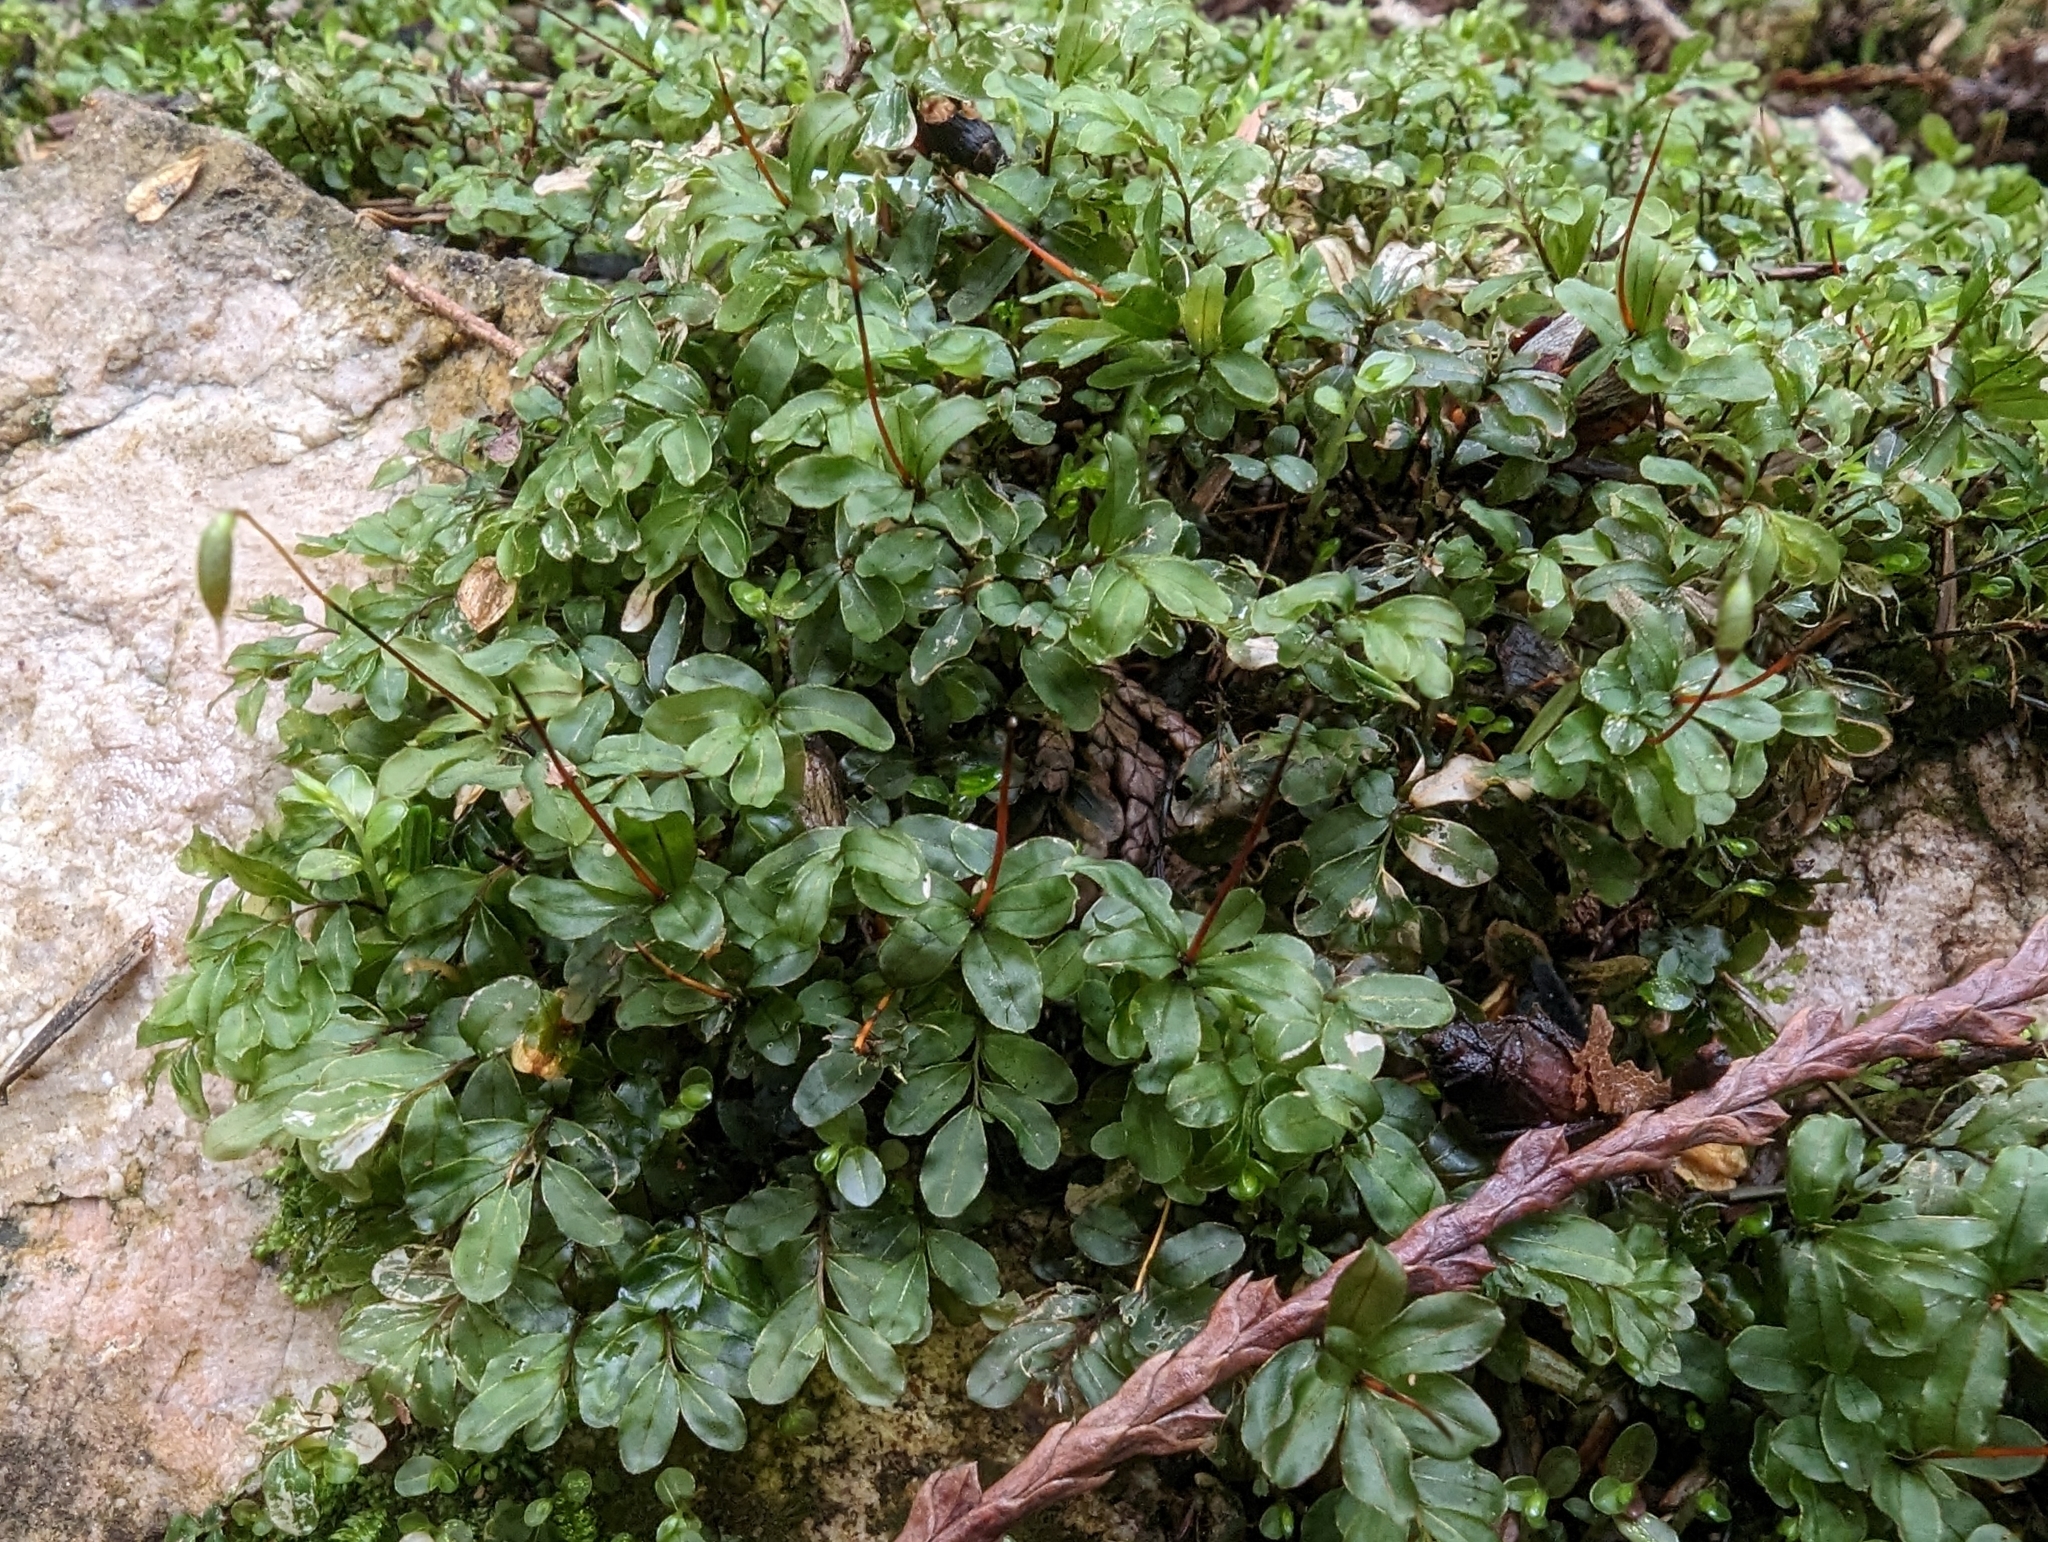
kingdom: Plantae
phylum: Bryophyta
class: Bryopsida
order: Bryales
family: Mniaceae
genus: Rhizomnium
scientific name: Rhizomnium glabrescens
